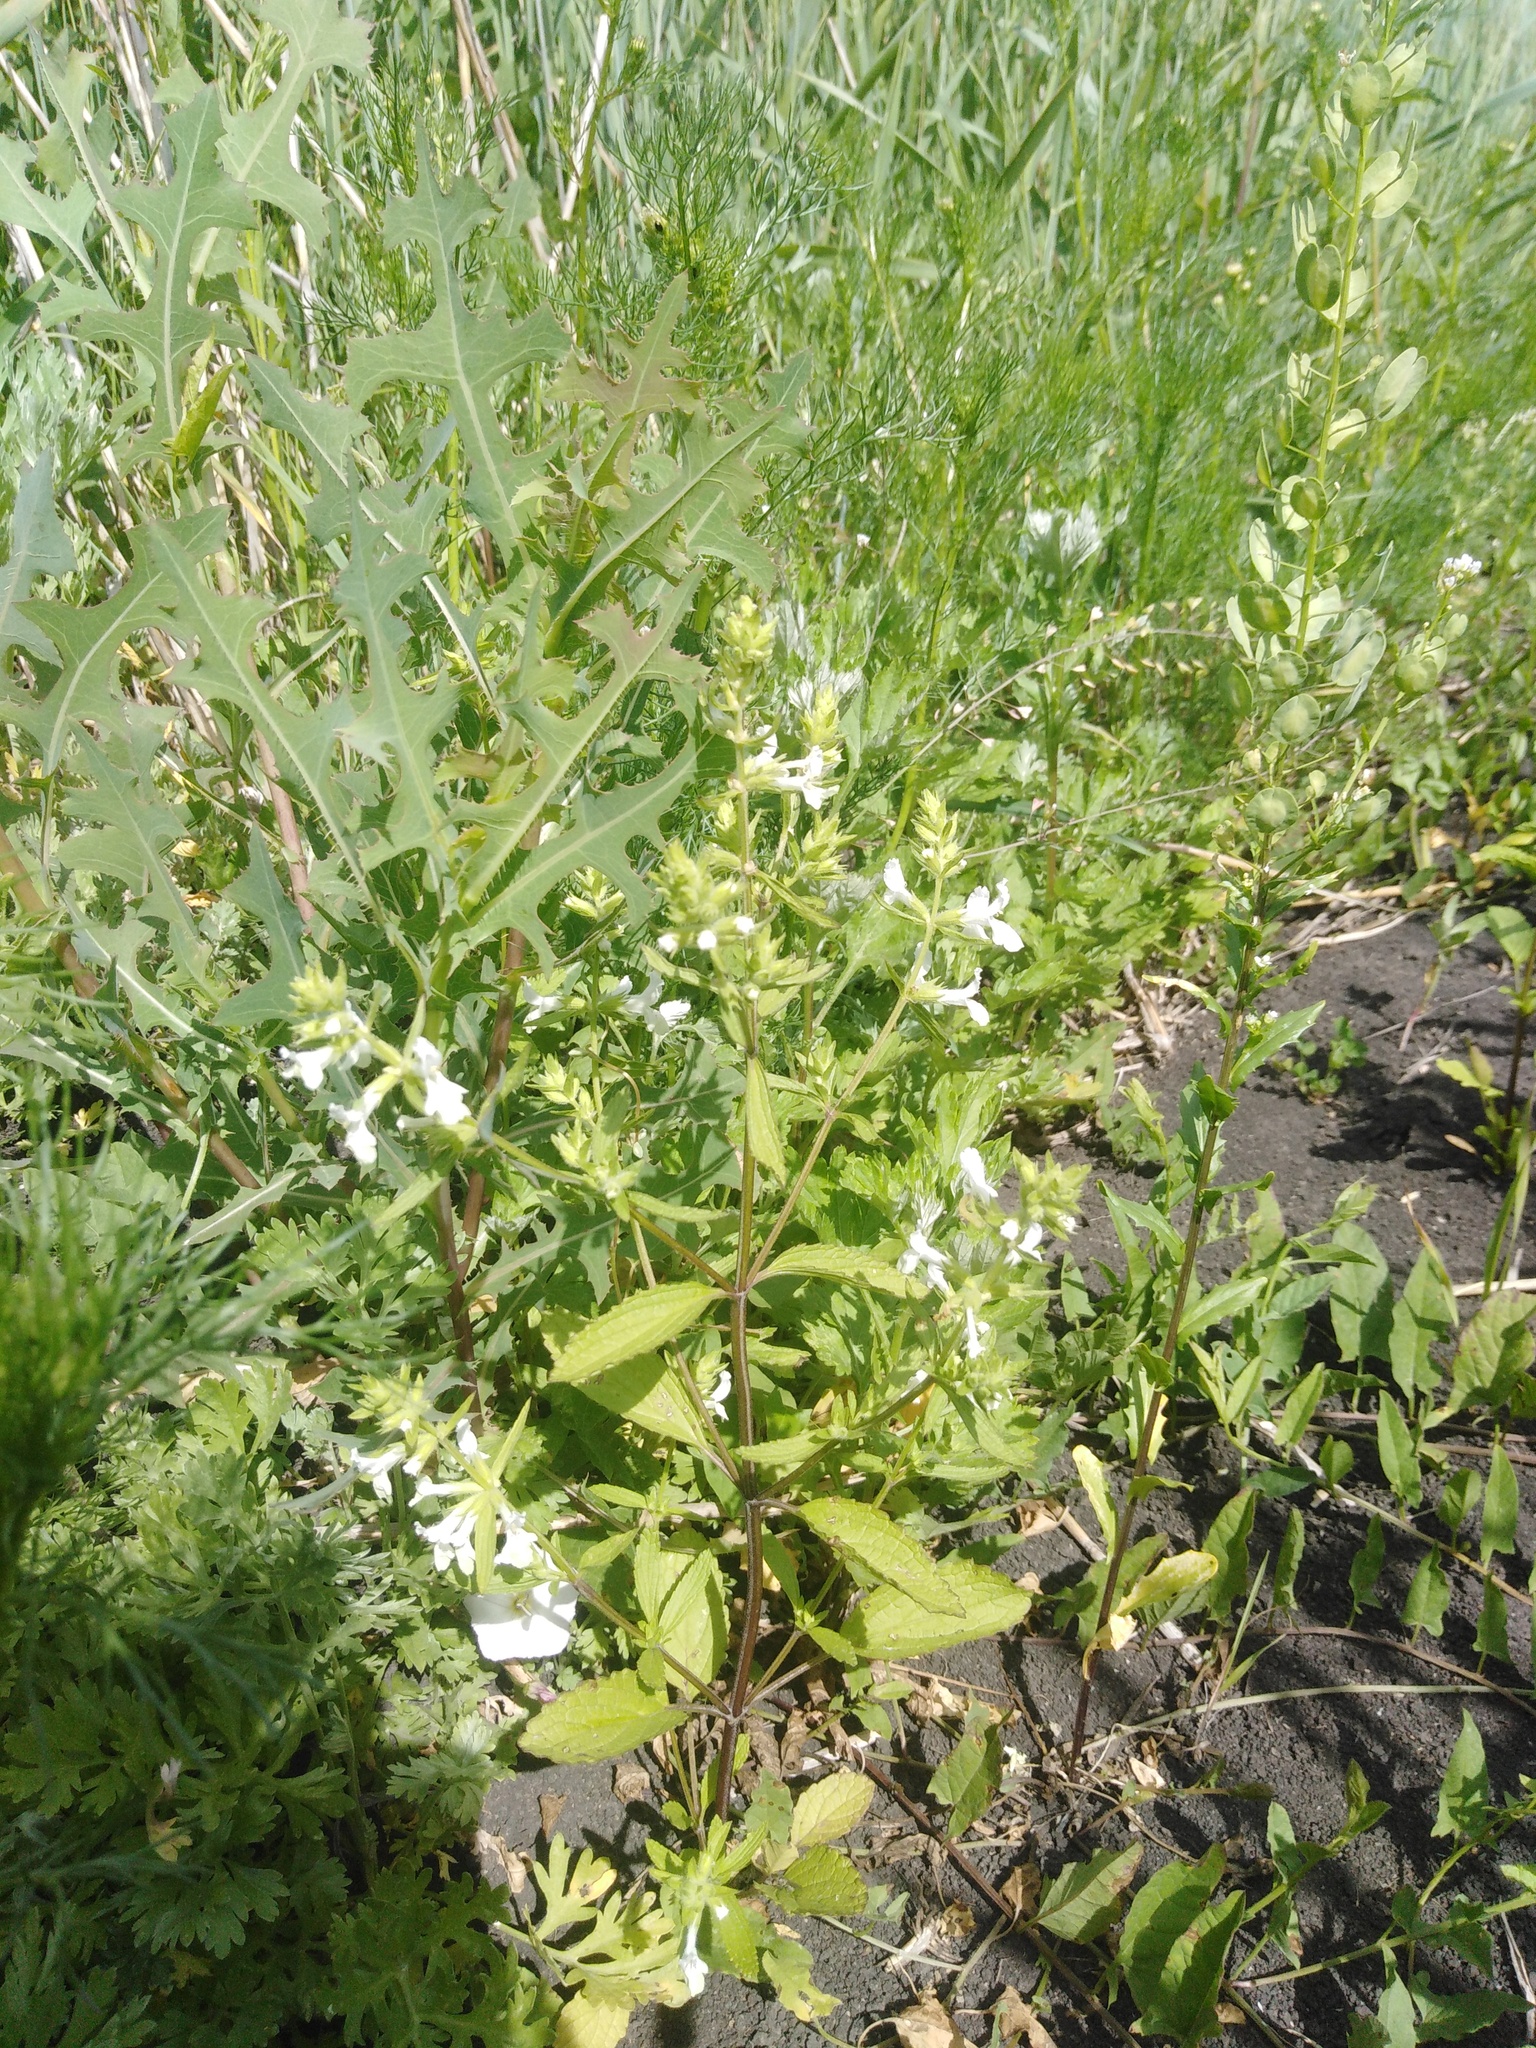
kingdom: Plantae
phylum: Tracheophyta
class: Magnoliopsida
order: Lamiales
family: Lamiaceae
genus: Stachys
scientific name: Stachys annua
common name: Annual yellow-woundwort
